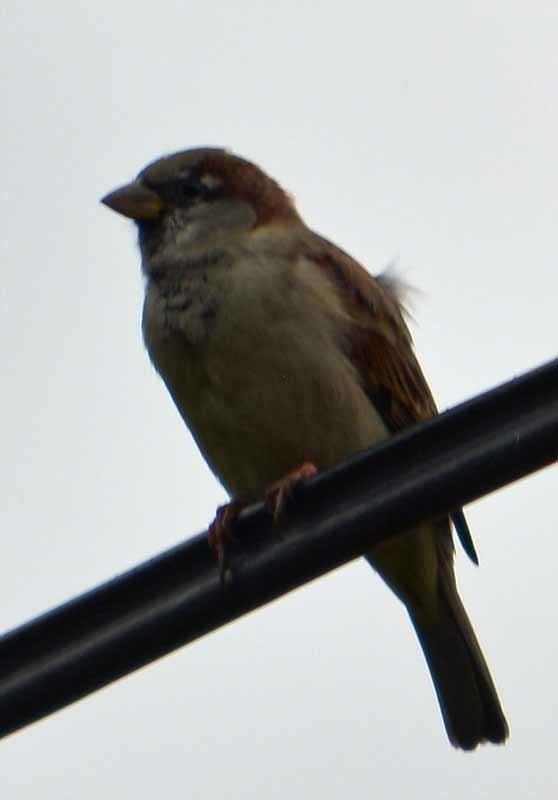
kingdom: Animalia
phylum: Chordata
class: Aves
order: Passeriformes
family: Passeridae
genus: Passer
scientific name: Passer domesticus
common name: House sparrow
